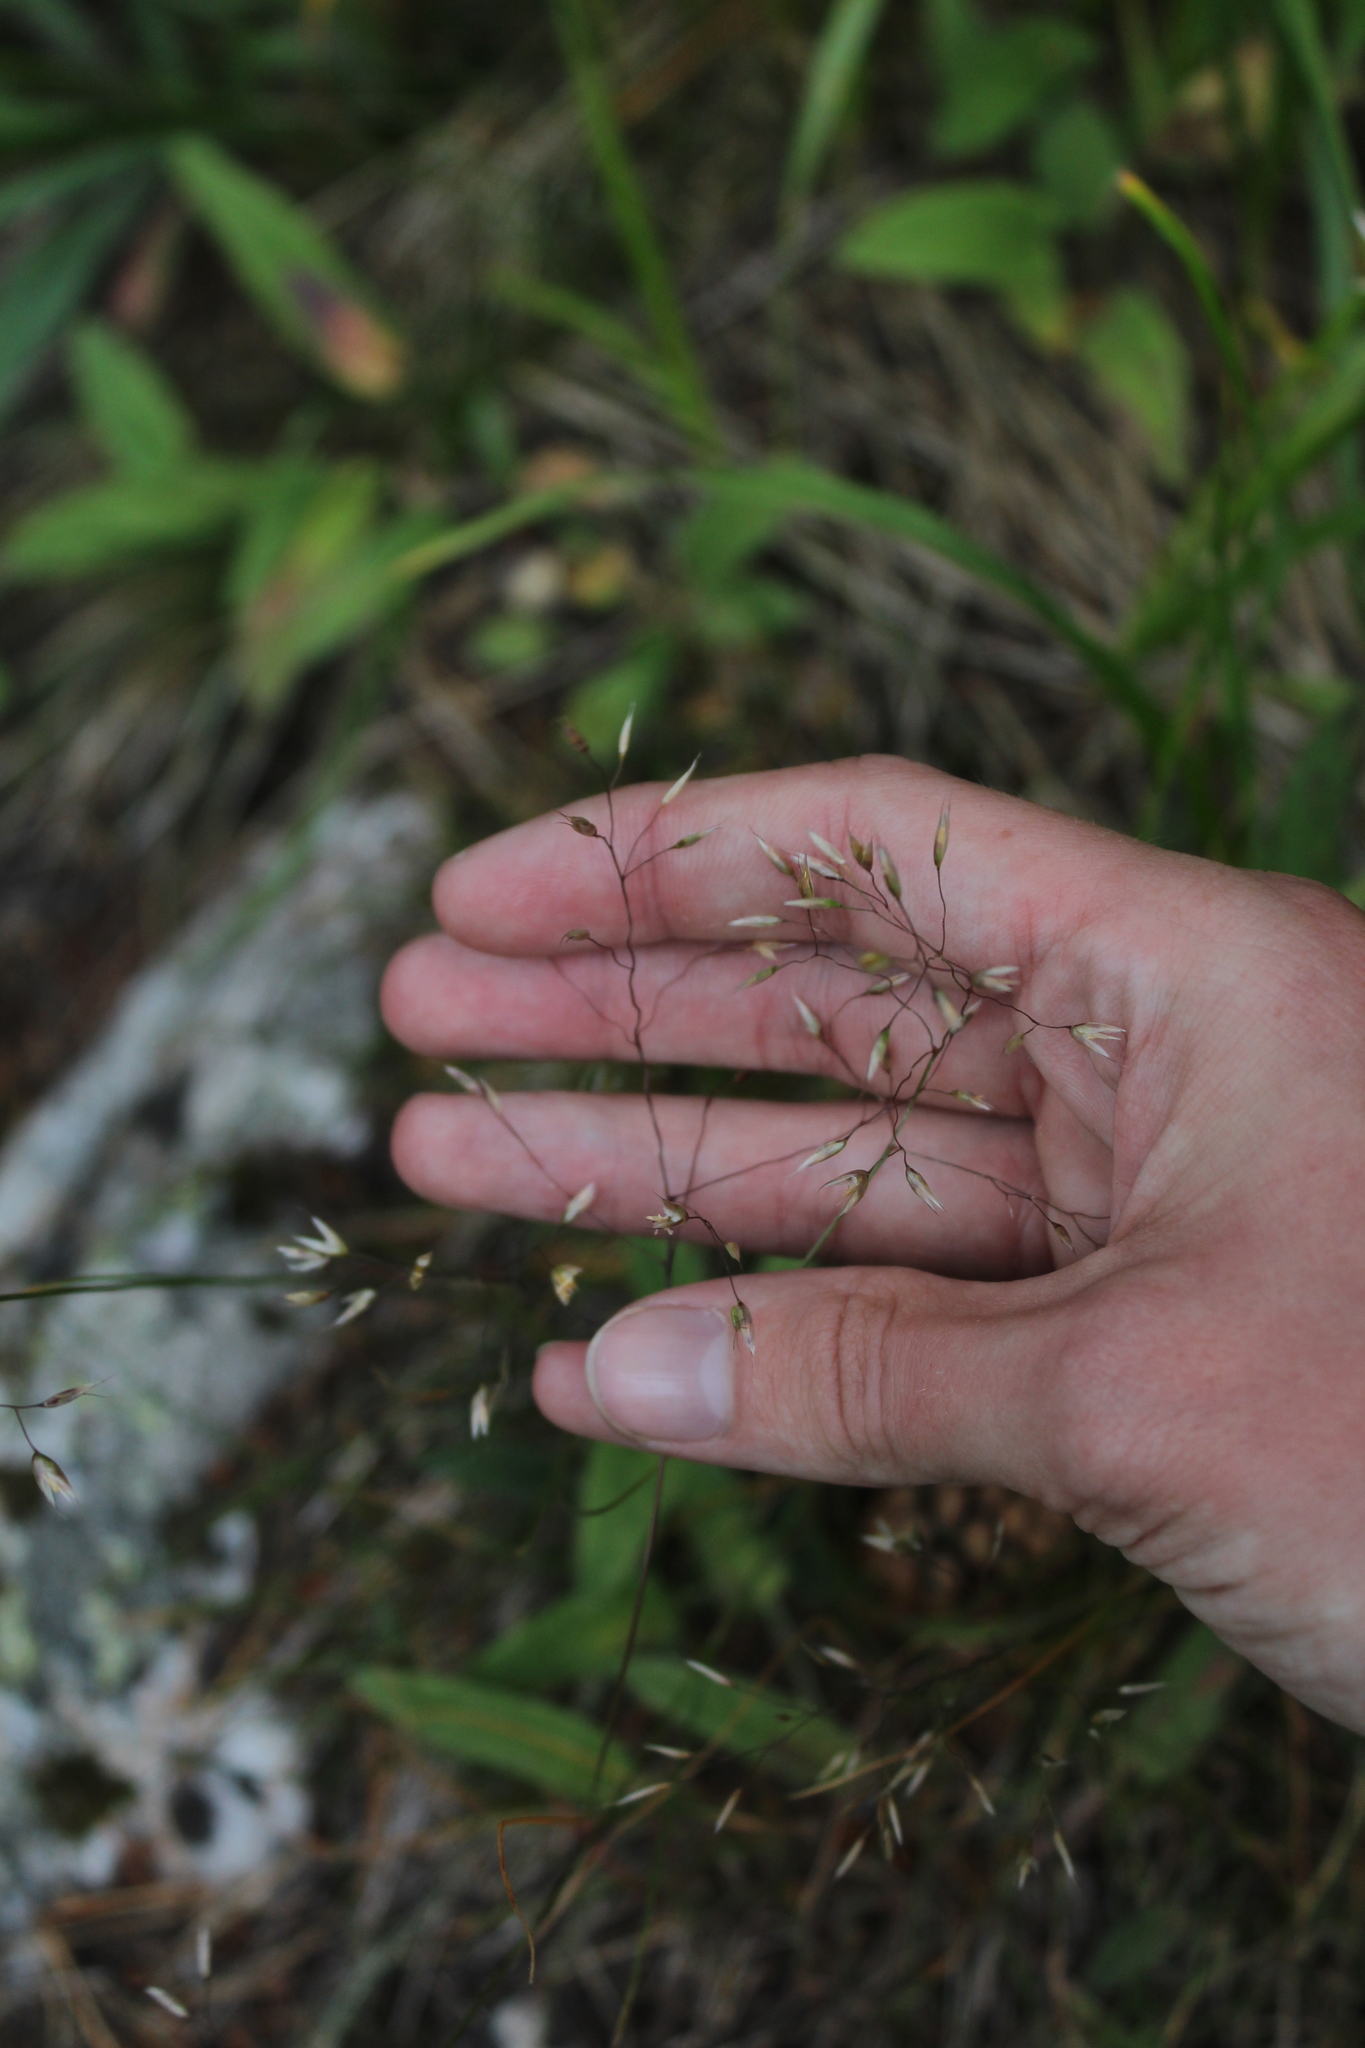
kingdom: Plantae
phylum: Tracheophyta
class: Liliopsida
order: Poales
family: Poaceae
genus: Avenella
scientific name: Avenella flexuosa
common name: Wavy hairgrass
